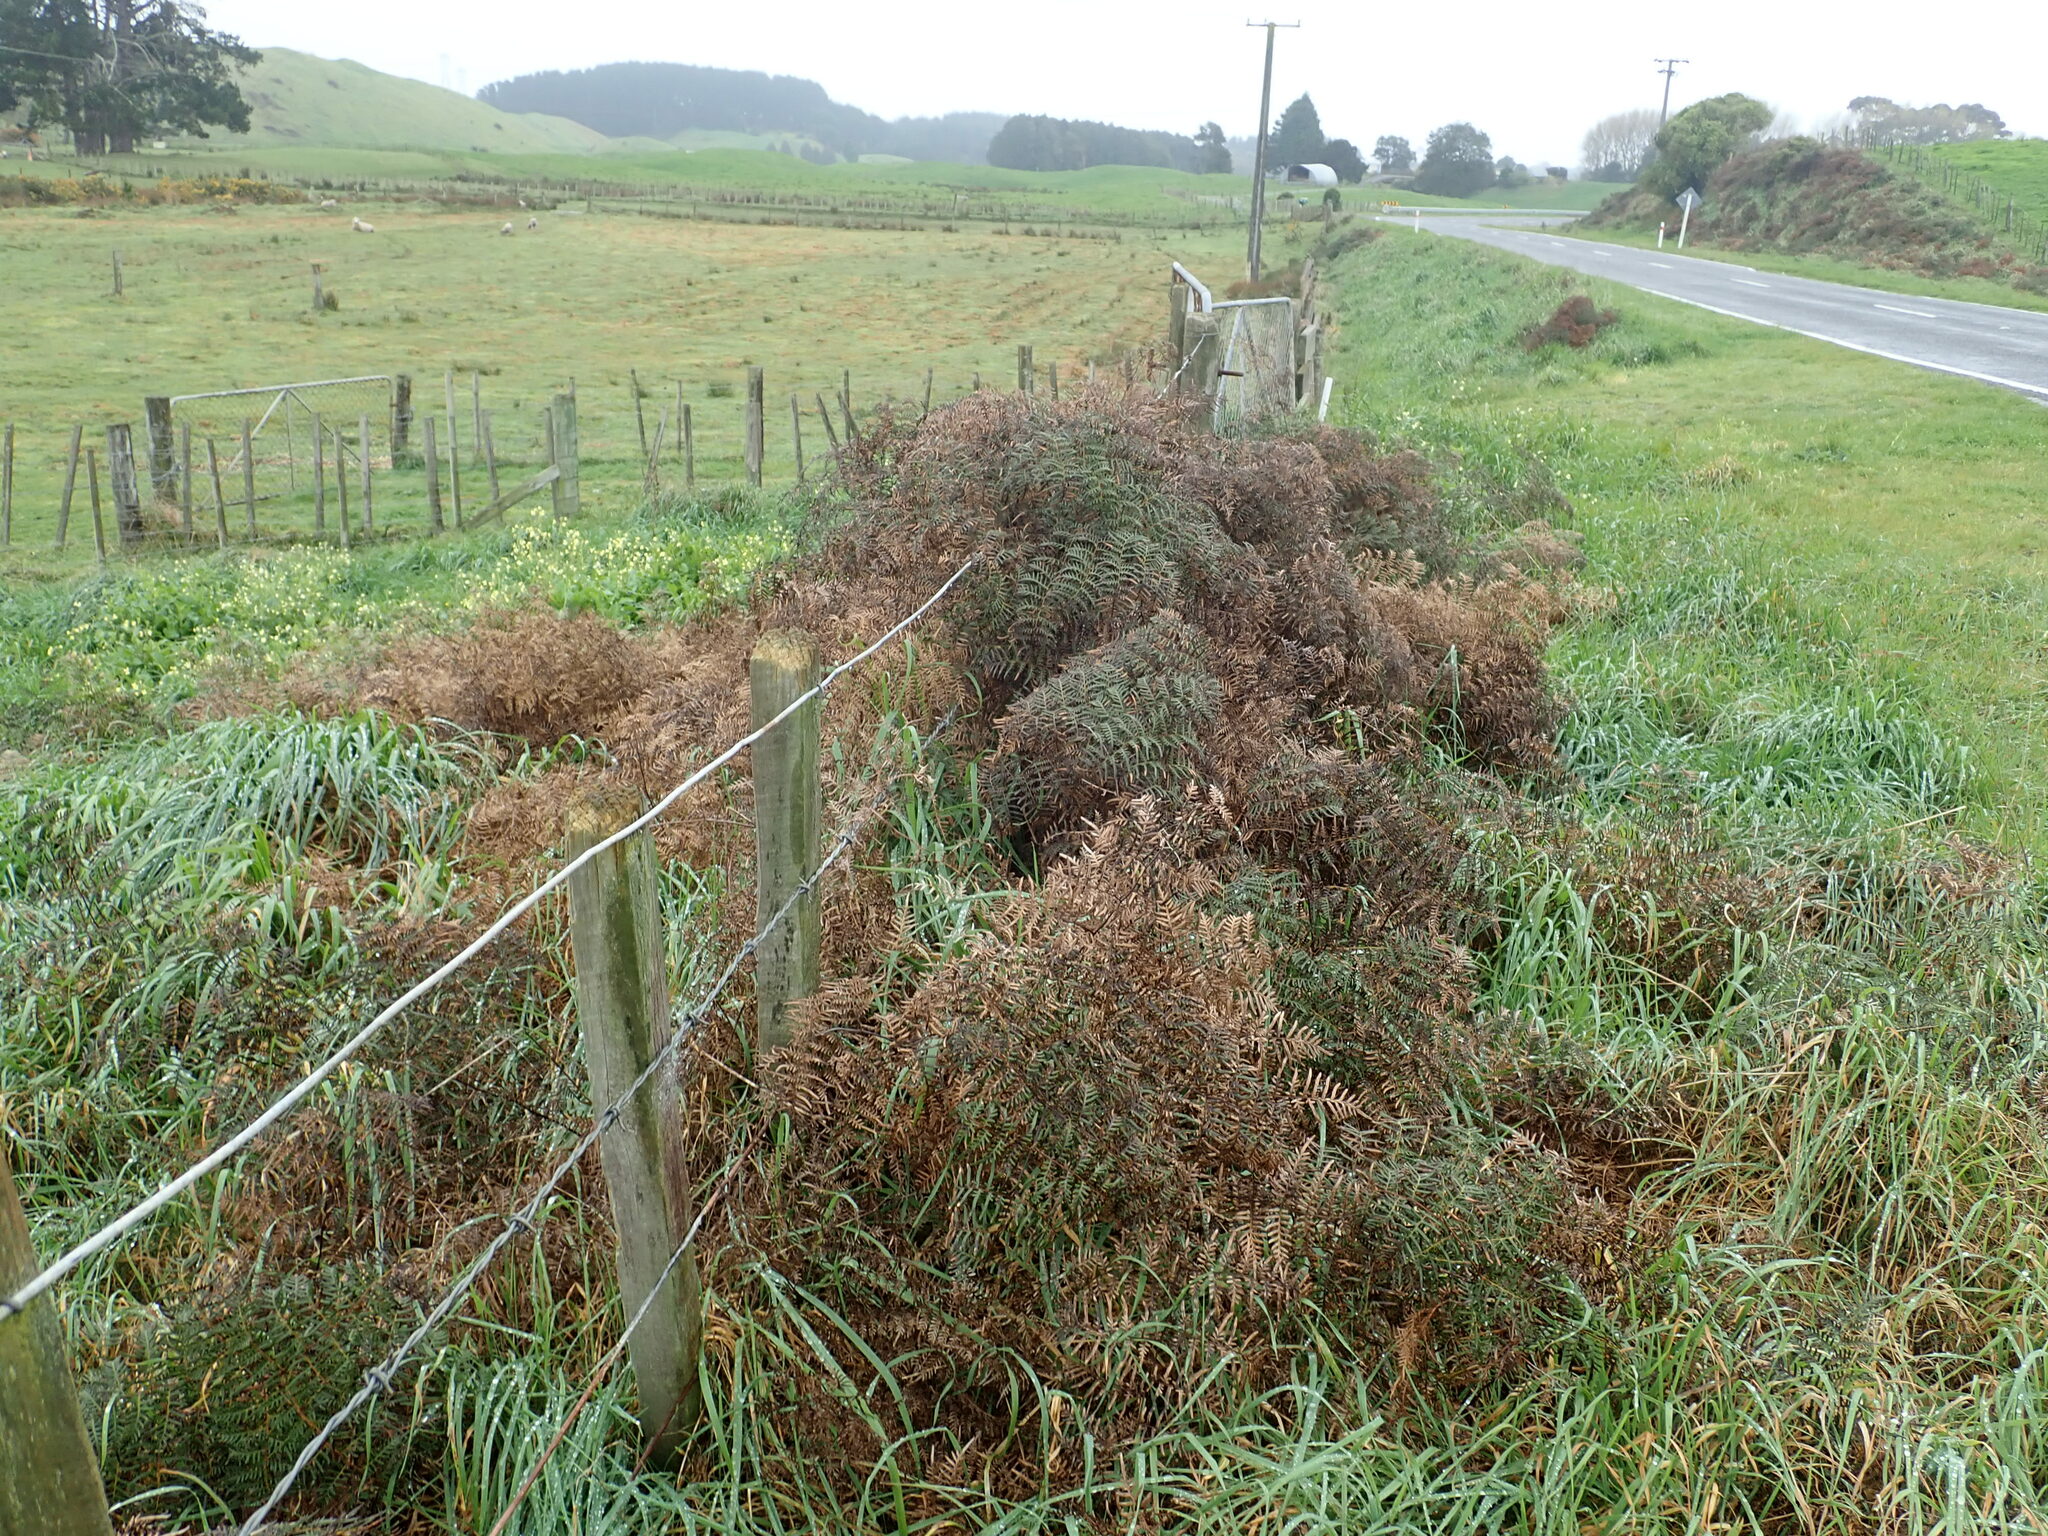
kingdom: Plantae
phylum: Tracheophyta
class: Polypodiopsida
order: Polypodiales
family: Dennstaedtiaceae
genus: Pteridium
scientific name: Pteridium esculentum
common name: Bracken fern
